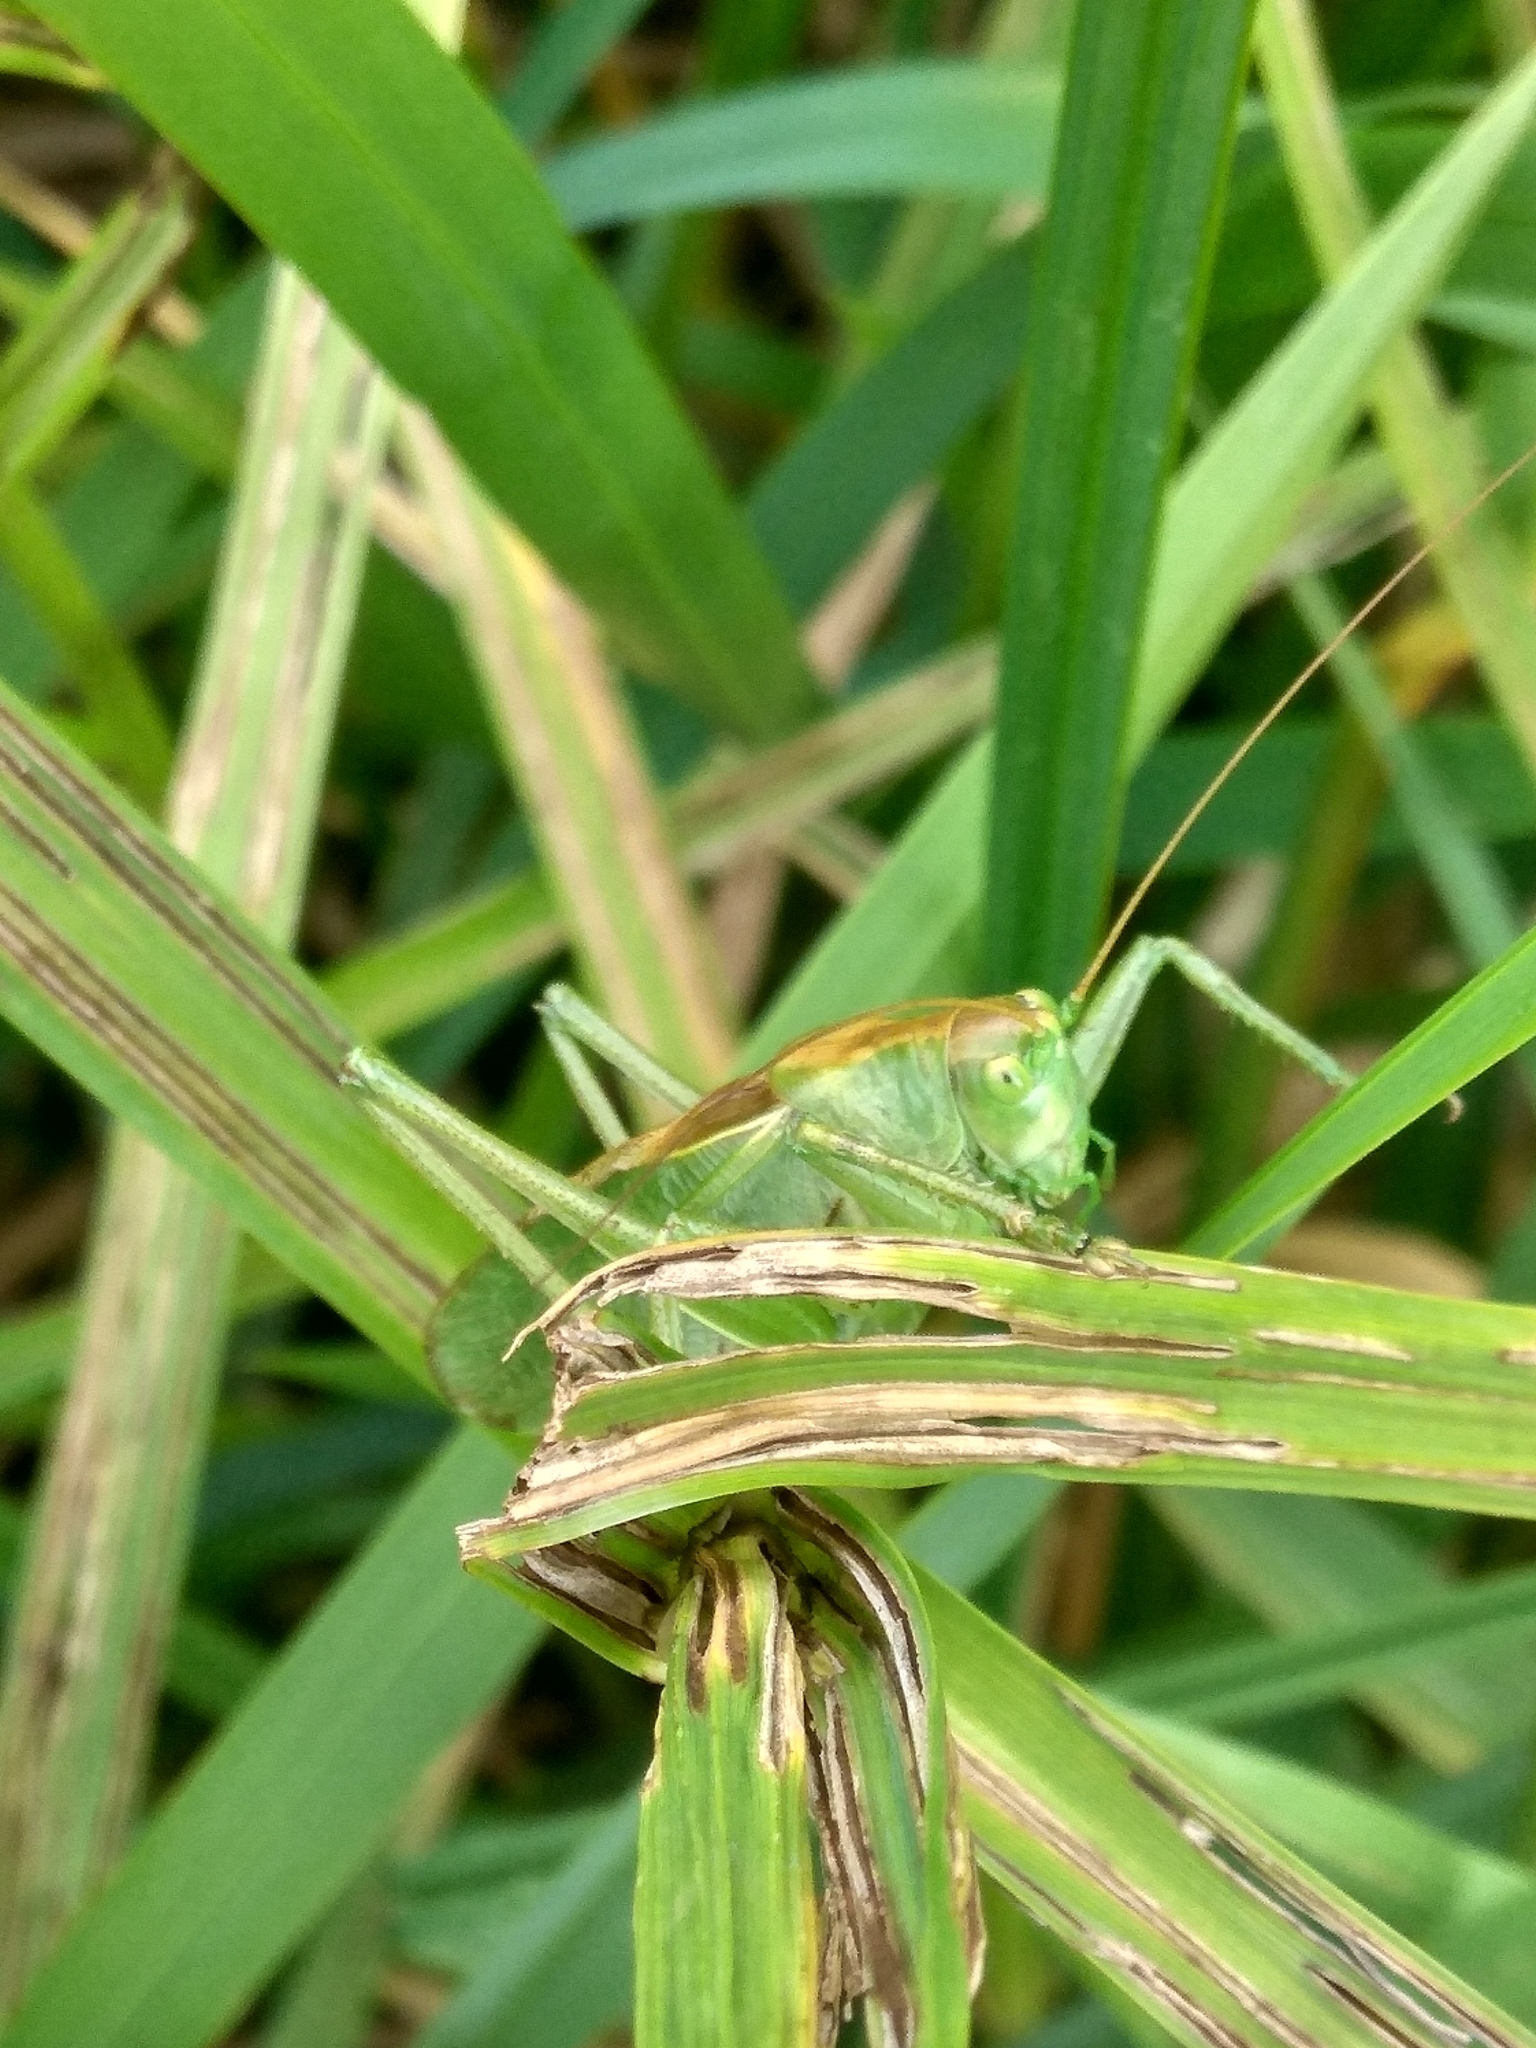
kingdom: Animalia
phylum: Arthropoda
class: Insecta
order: Orthoptera
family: Tettigoniidae
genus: Tettigonia
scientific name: Tettigonia cantans
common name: Upland green bush-cricket
